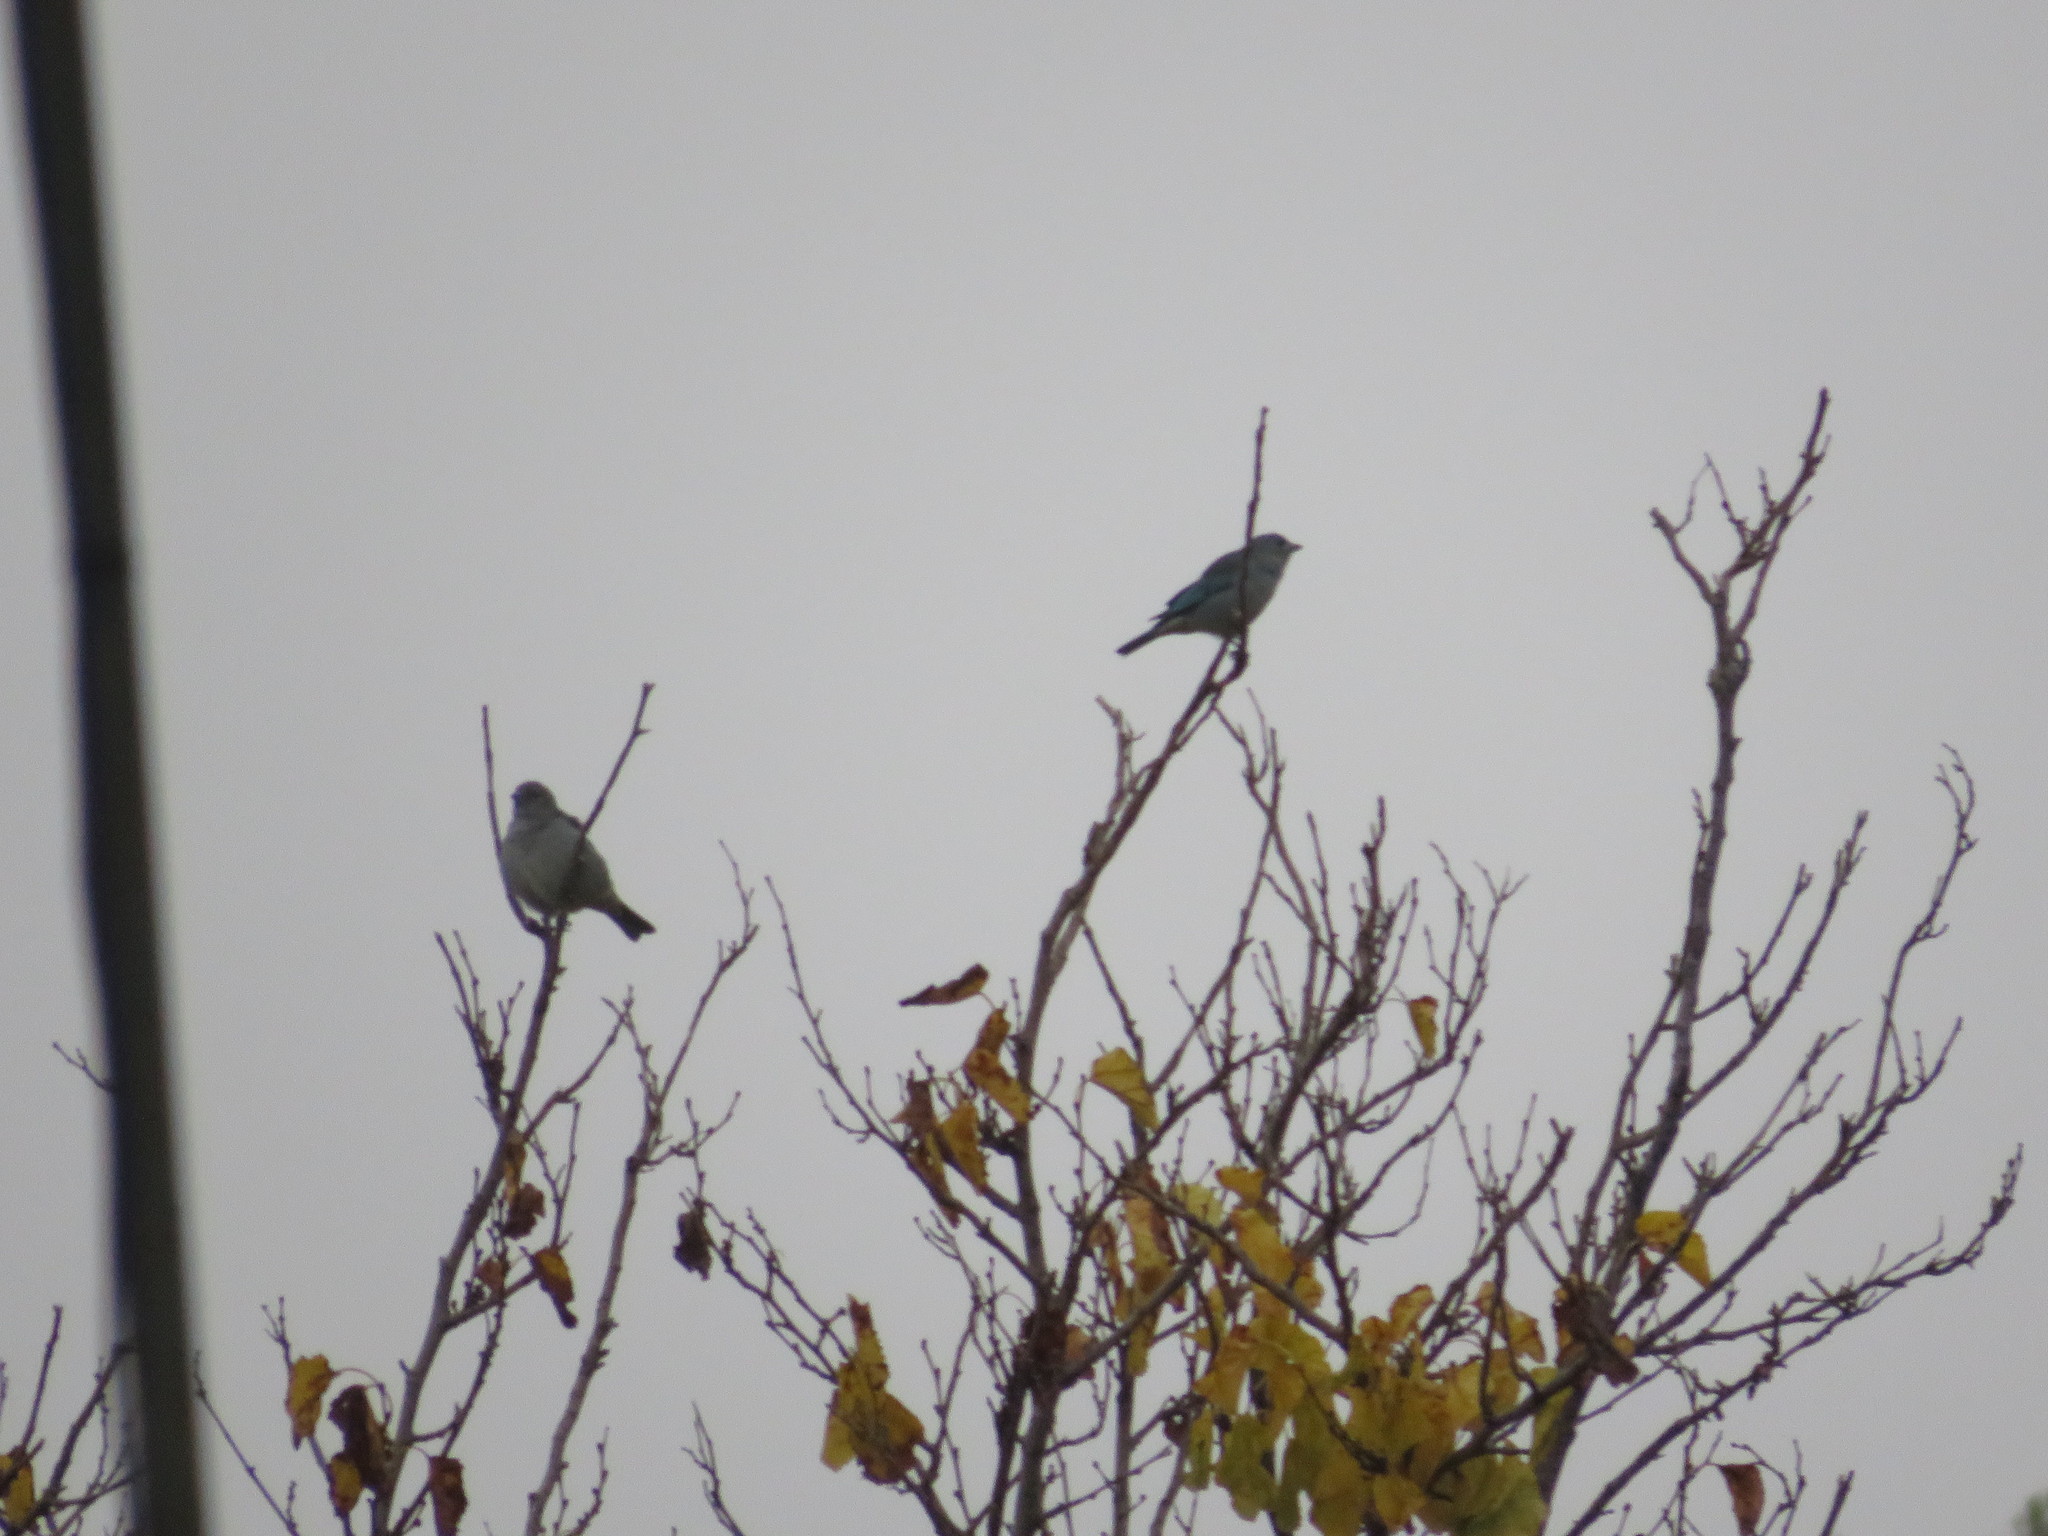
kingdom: Animalia
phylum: Chordata
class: Aves
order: Passeriformes
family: Thraupidae
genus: Thraupis
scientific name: Thraupis sayaca
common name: Sayaca tanager
